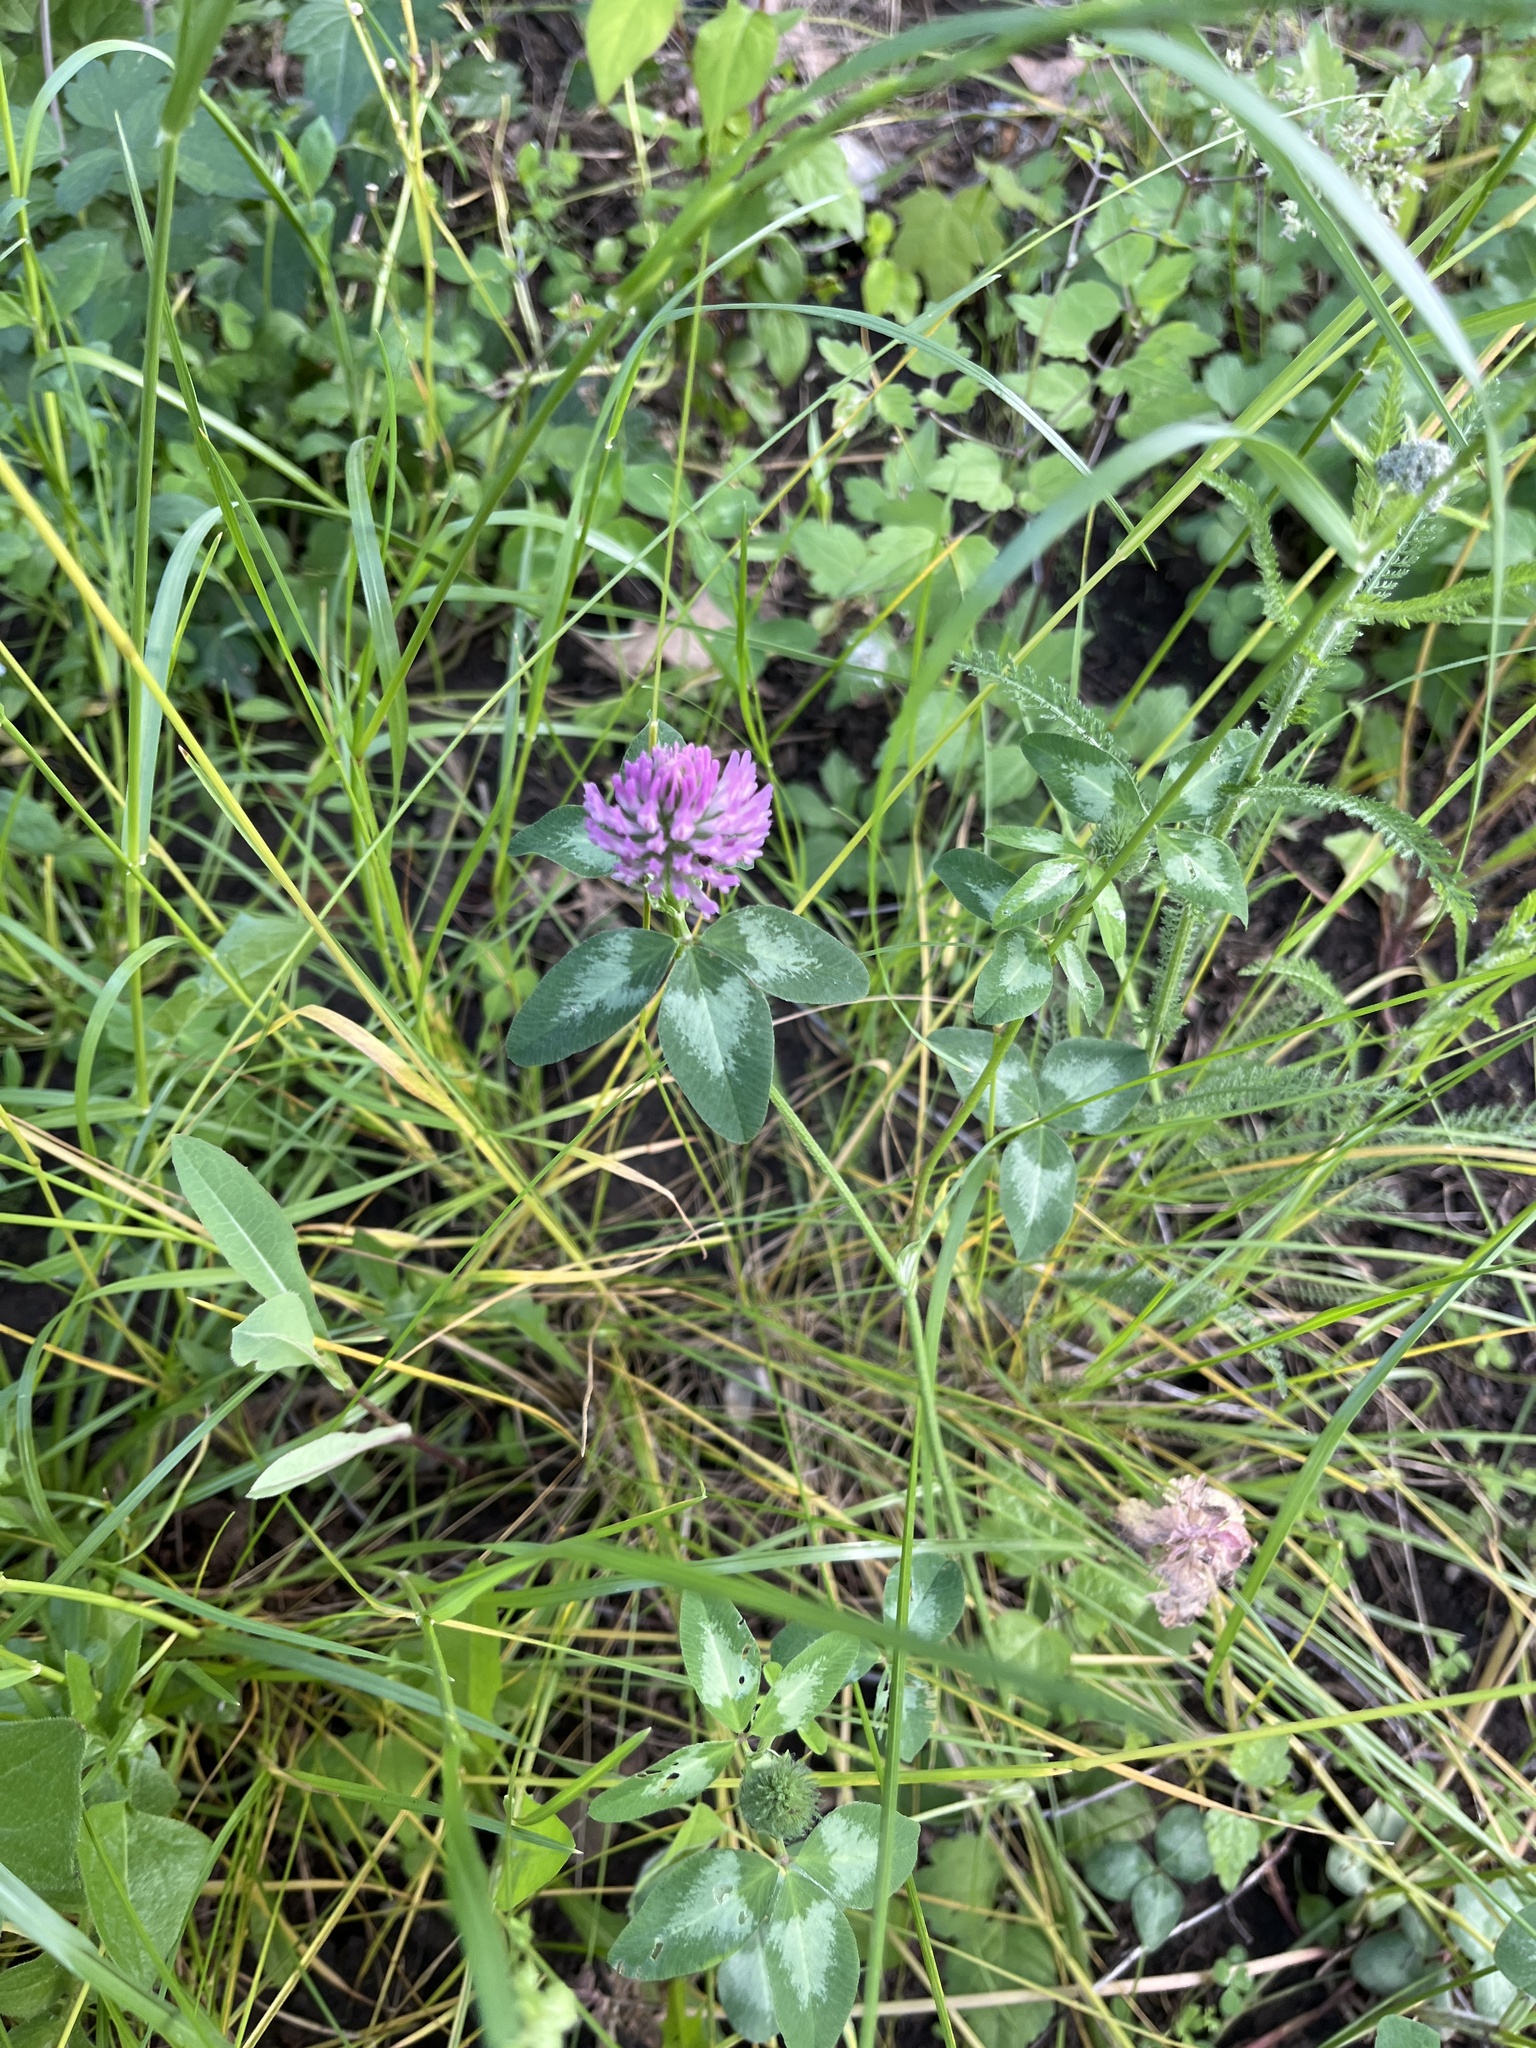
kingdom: Plantae
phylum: Tracheophyta
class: Magnoliopsida
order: Fabales
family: Fabaceae
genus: Trifolium
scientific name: Trifolium pratense
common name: Red clover
